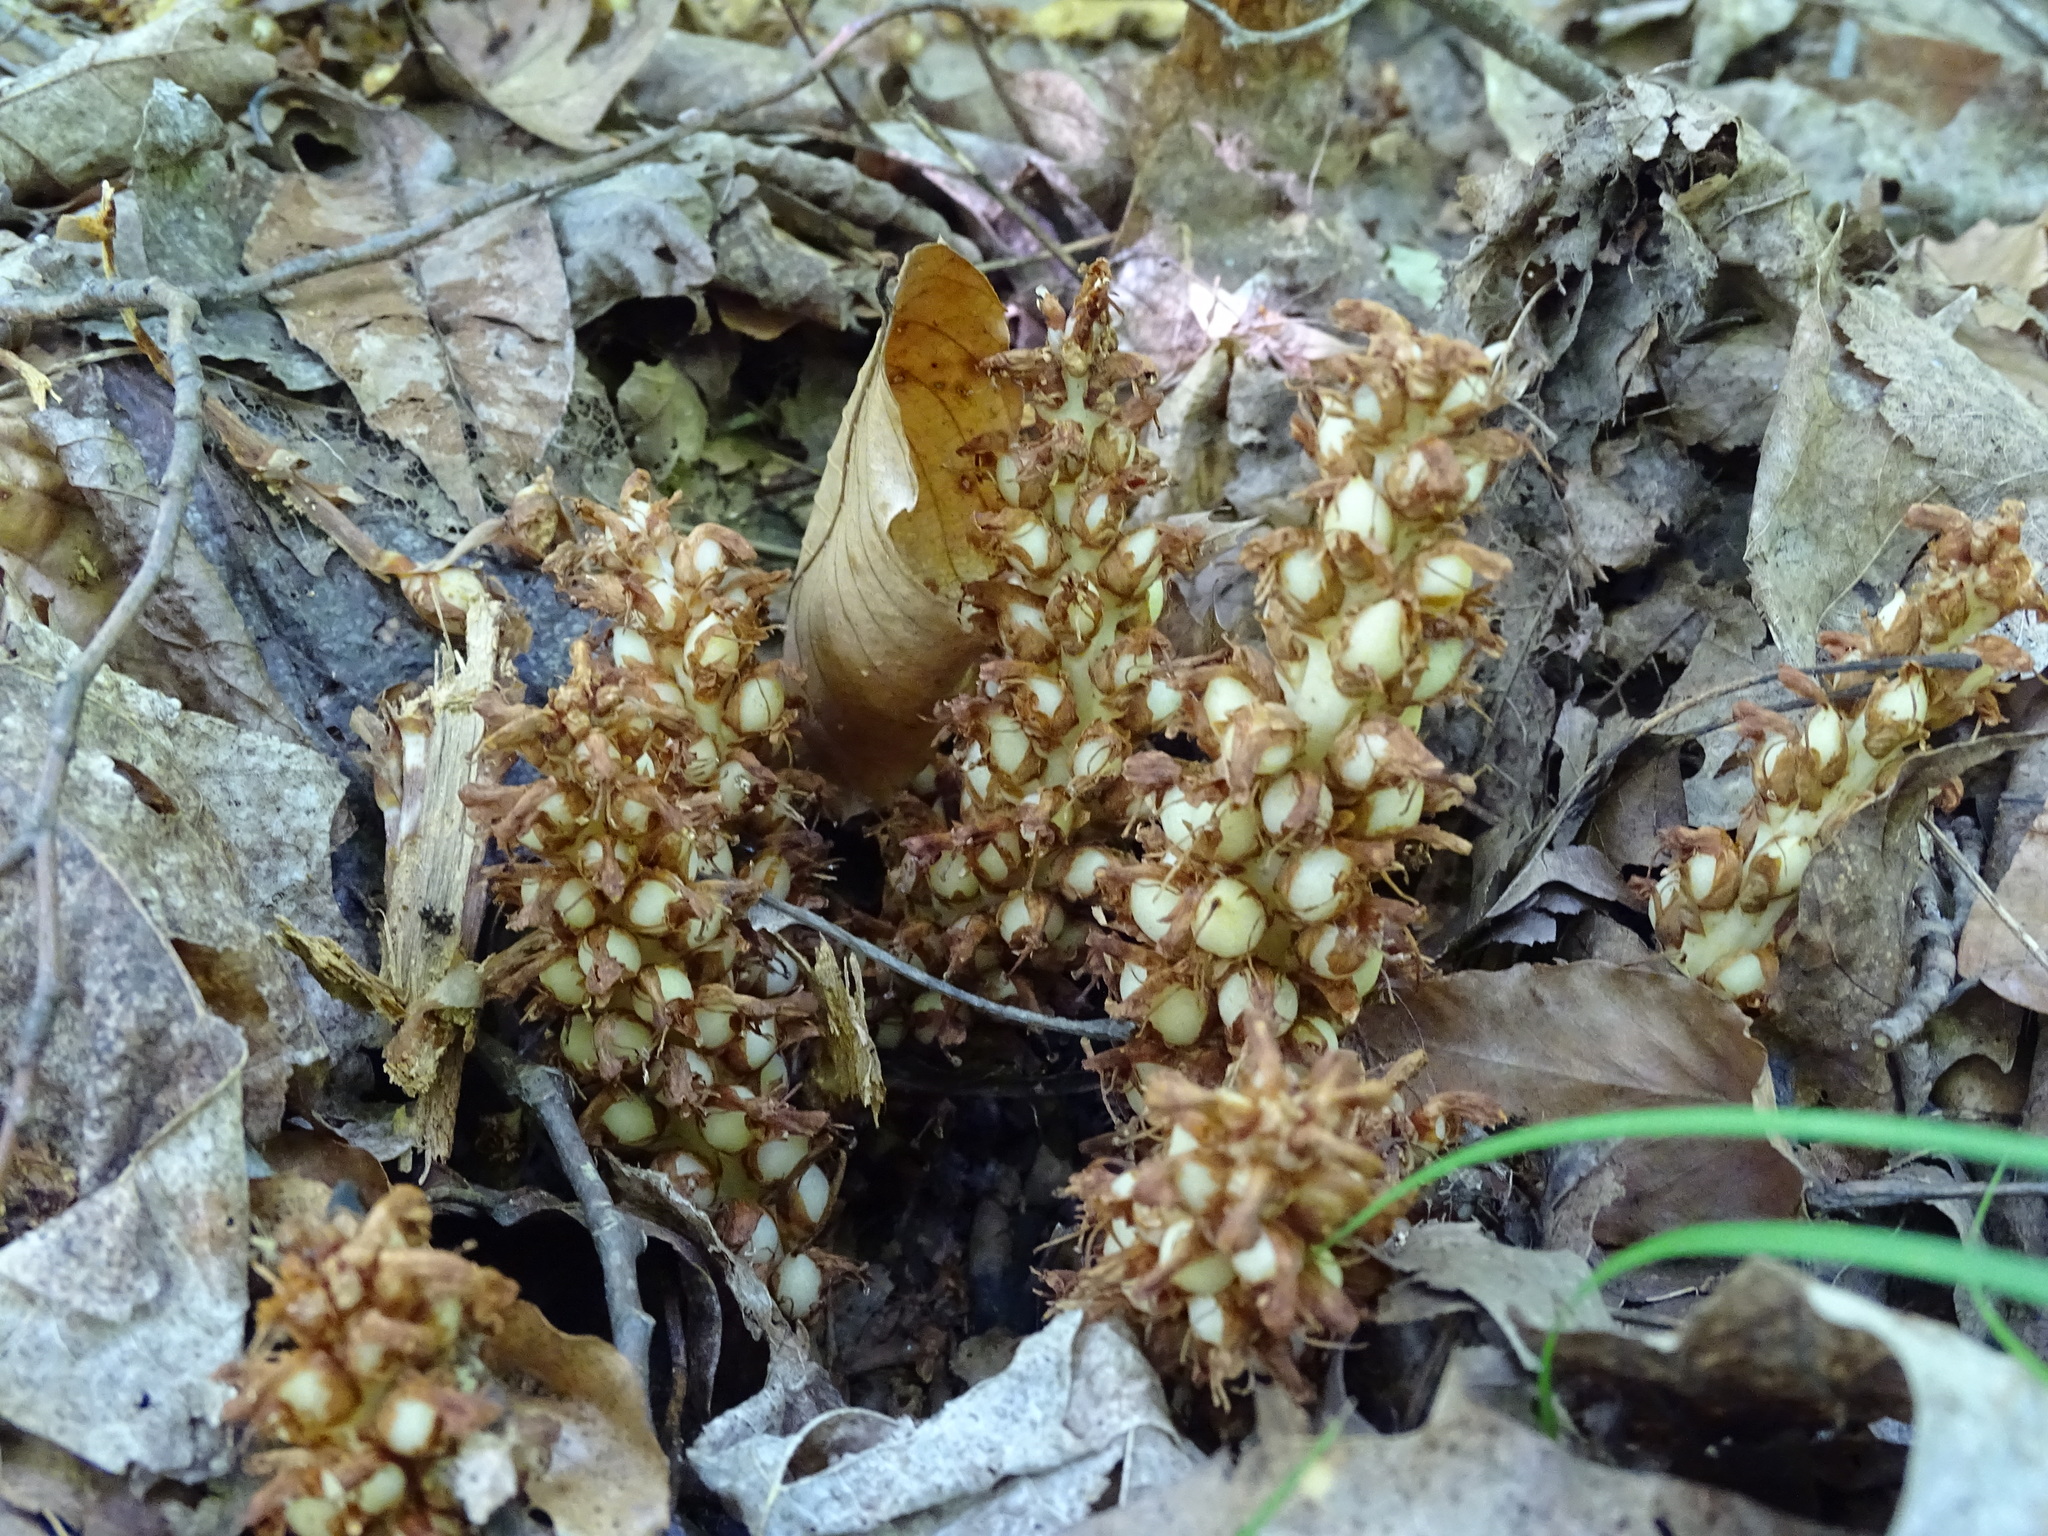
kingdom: Plantae
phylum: Tracheophyta
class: Magnoliopsida
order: Lamiales
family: Orobanchaceae
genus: Conopholis
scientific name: Conopholis americana
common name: American cancer-root
